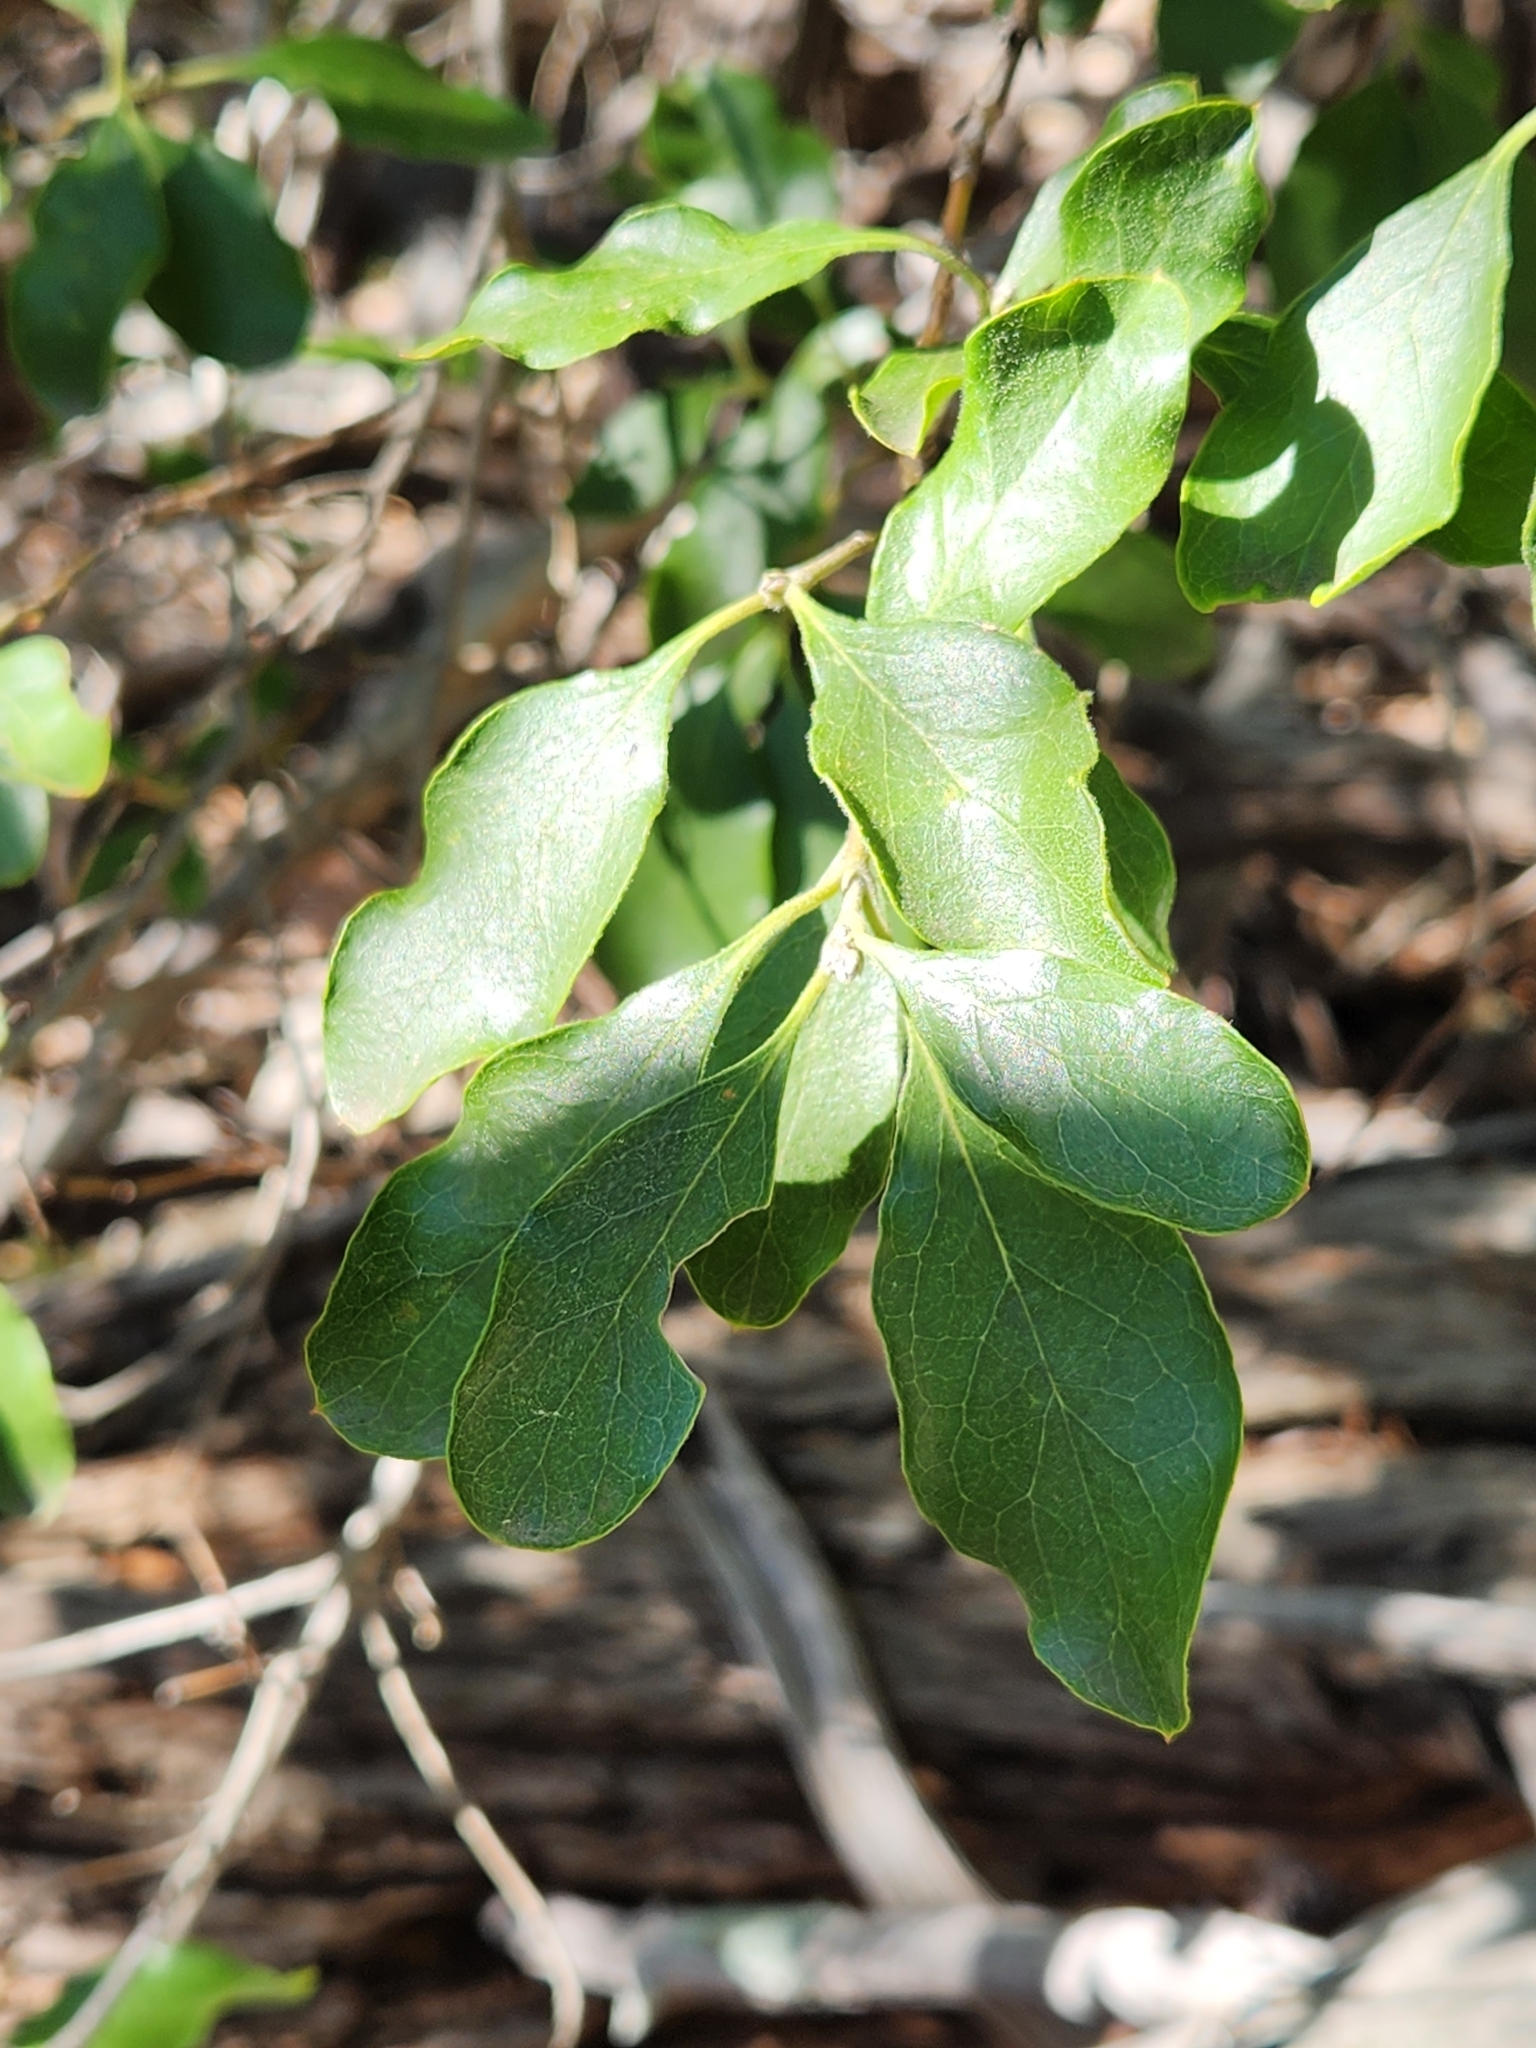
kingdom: Plantae
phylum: Tracheophyta
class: Magnoliopsida
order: Garryales
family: Garryaceae
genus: Garrya
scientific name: Garrya lindheimeri
